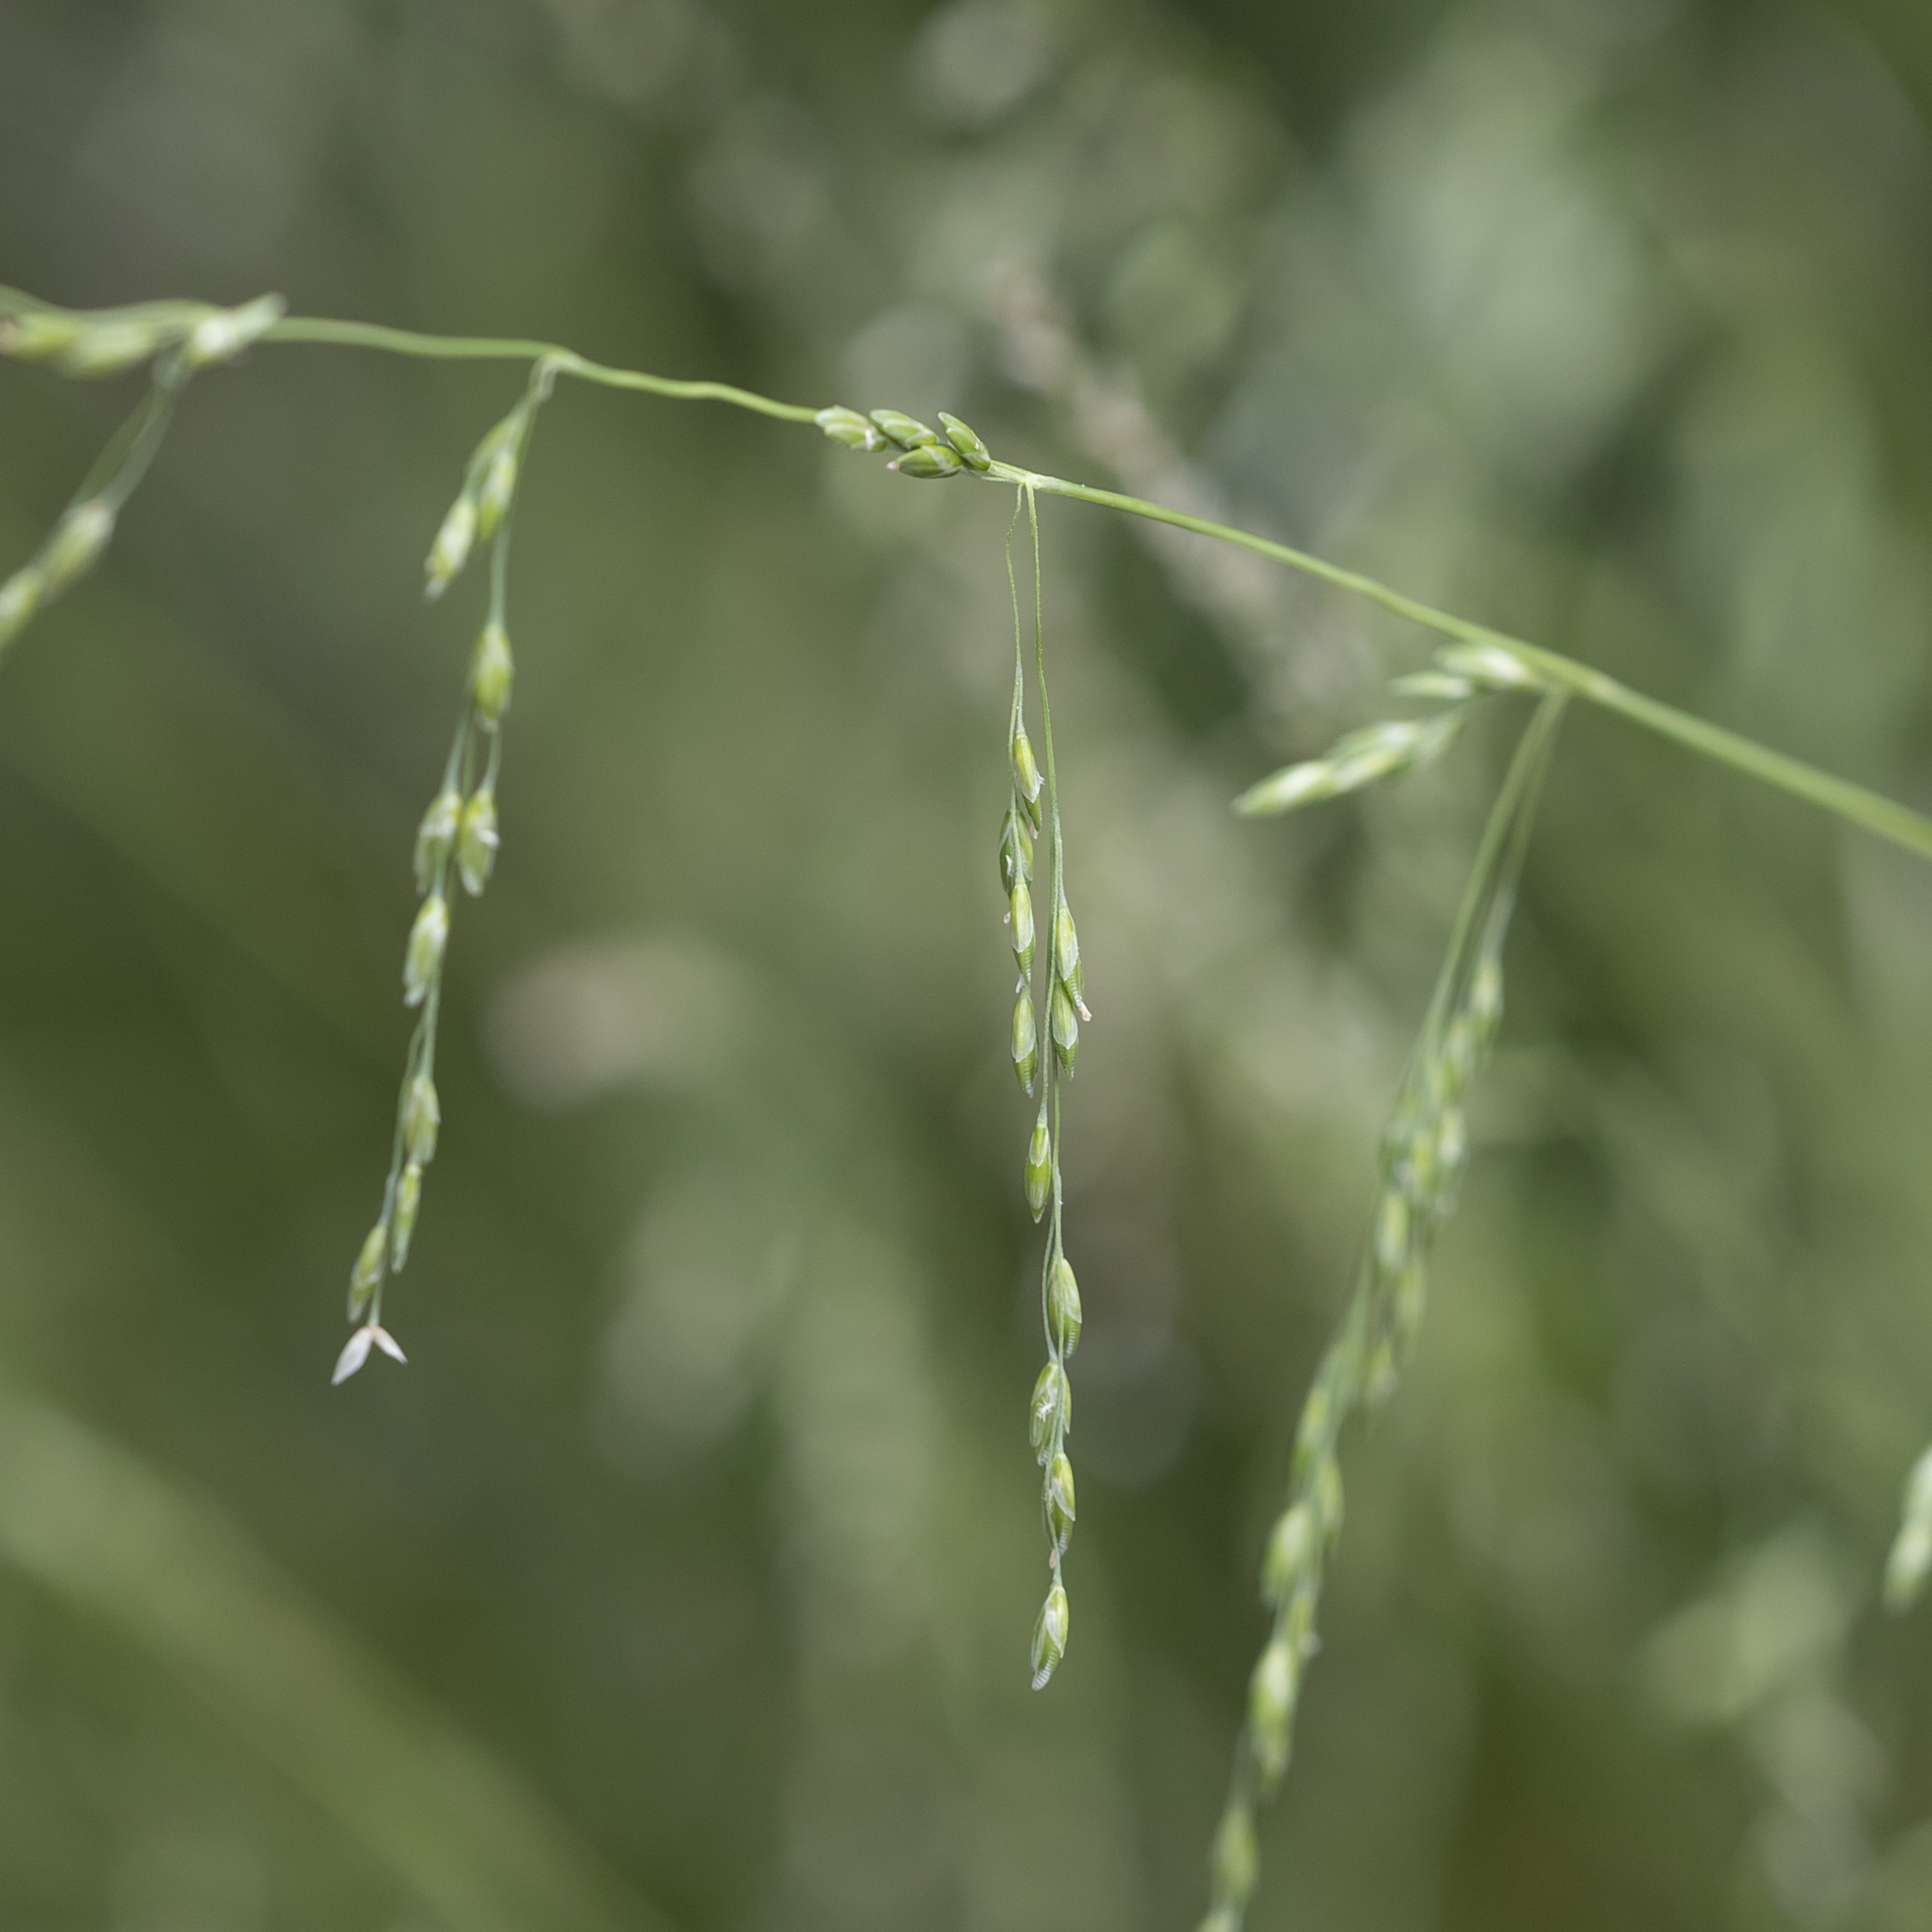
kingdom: Plantae
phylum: Tracheophyta
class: Liliopsida
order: Poales
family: Poaceae
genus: Ehrharta
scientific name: Ehrharta erecta
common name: Panic veldtgrass
